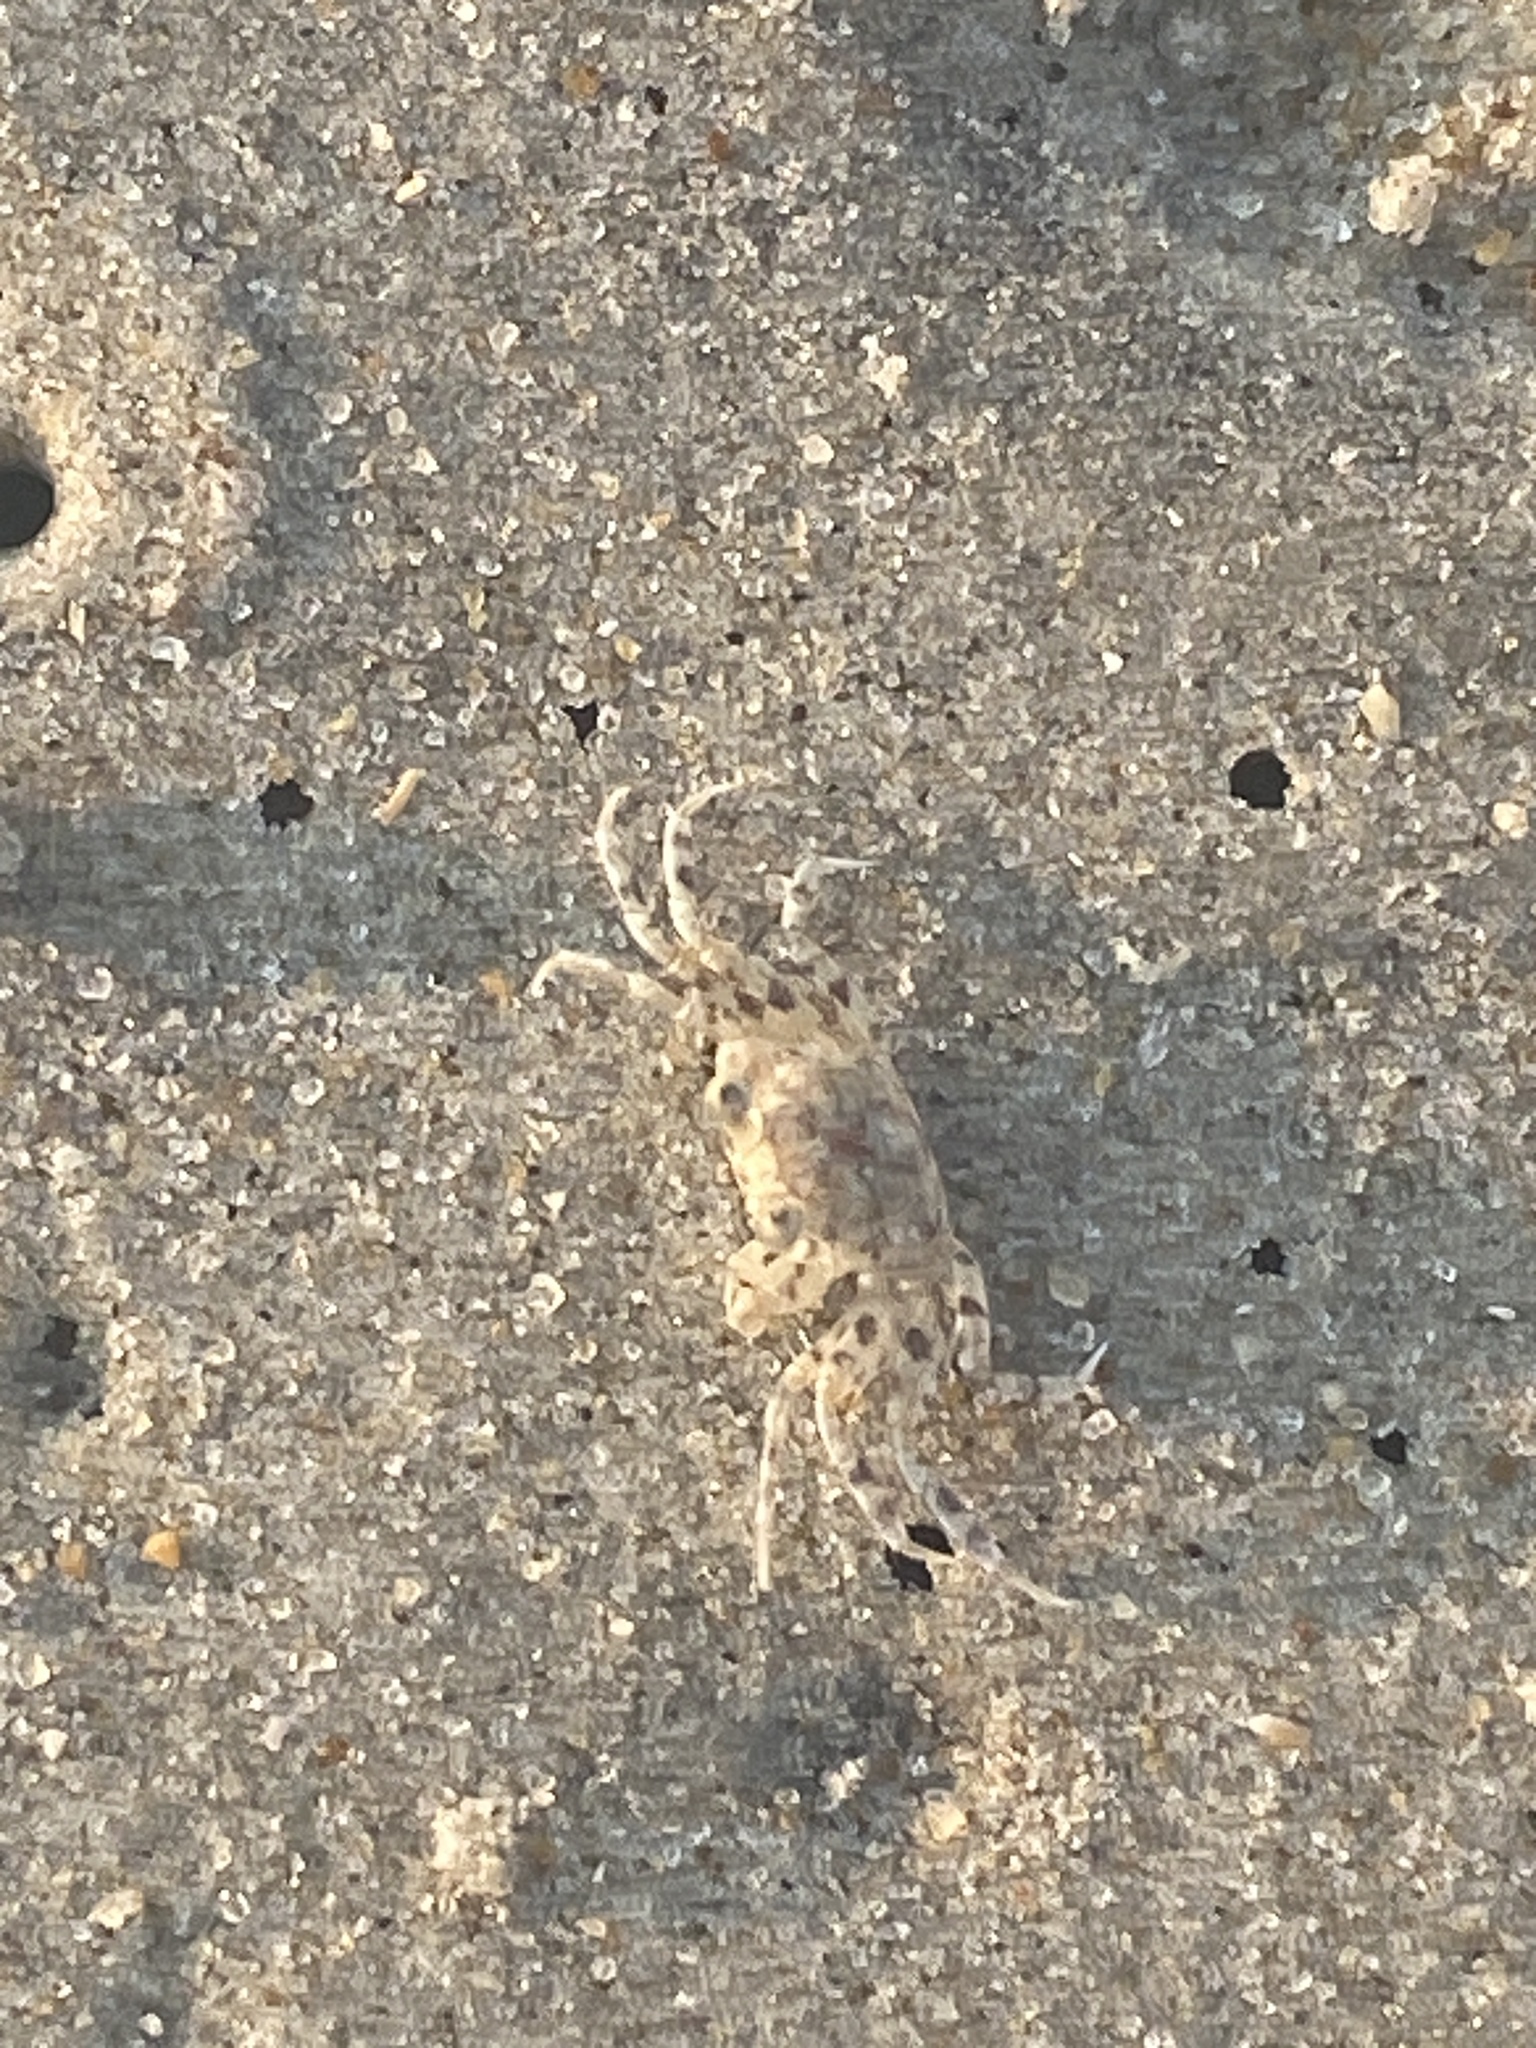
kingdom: Animalia
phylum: Arthropoda
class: Malacostraca
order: Decapoda
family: Ocypodidae
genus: Ocypode
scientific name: Ocypode quadrata
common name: Ghost crab
